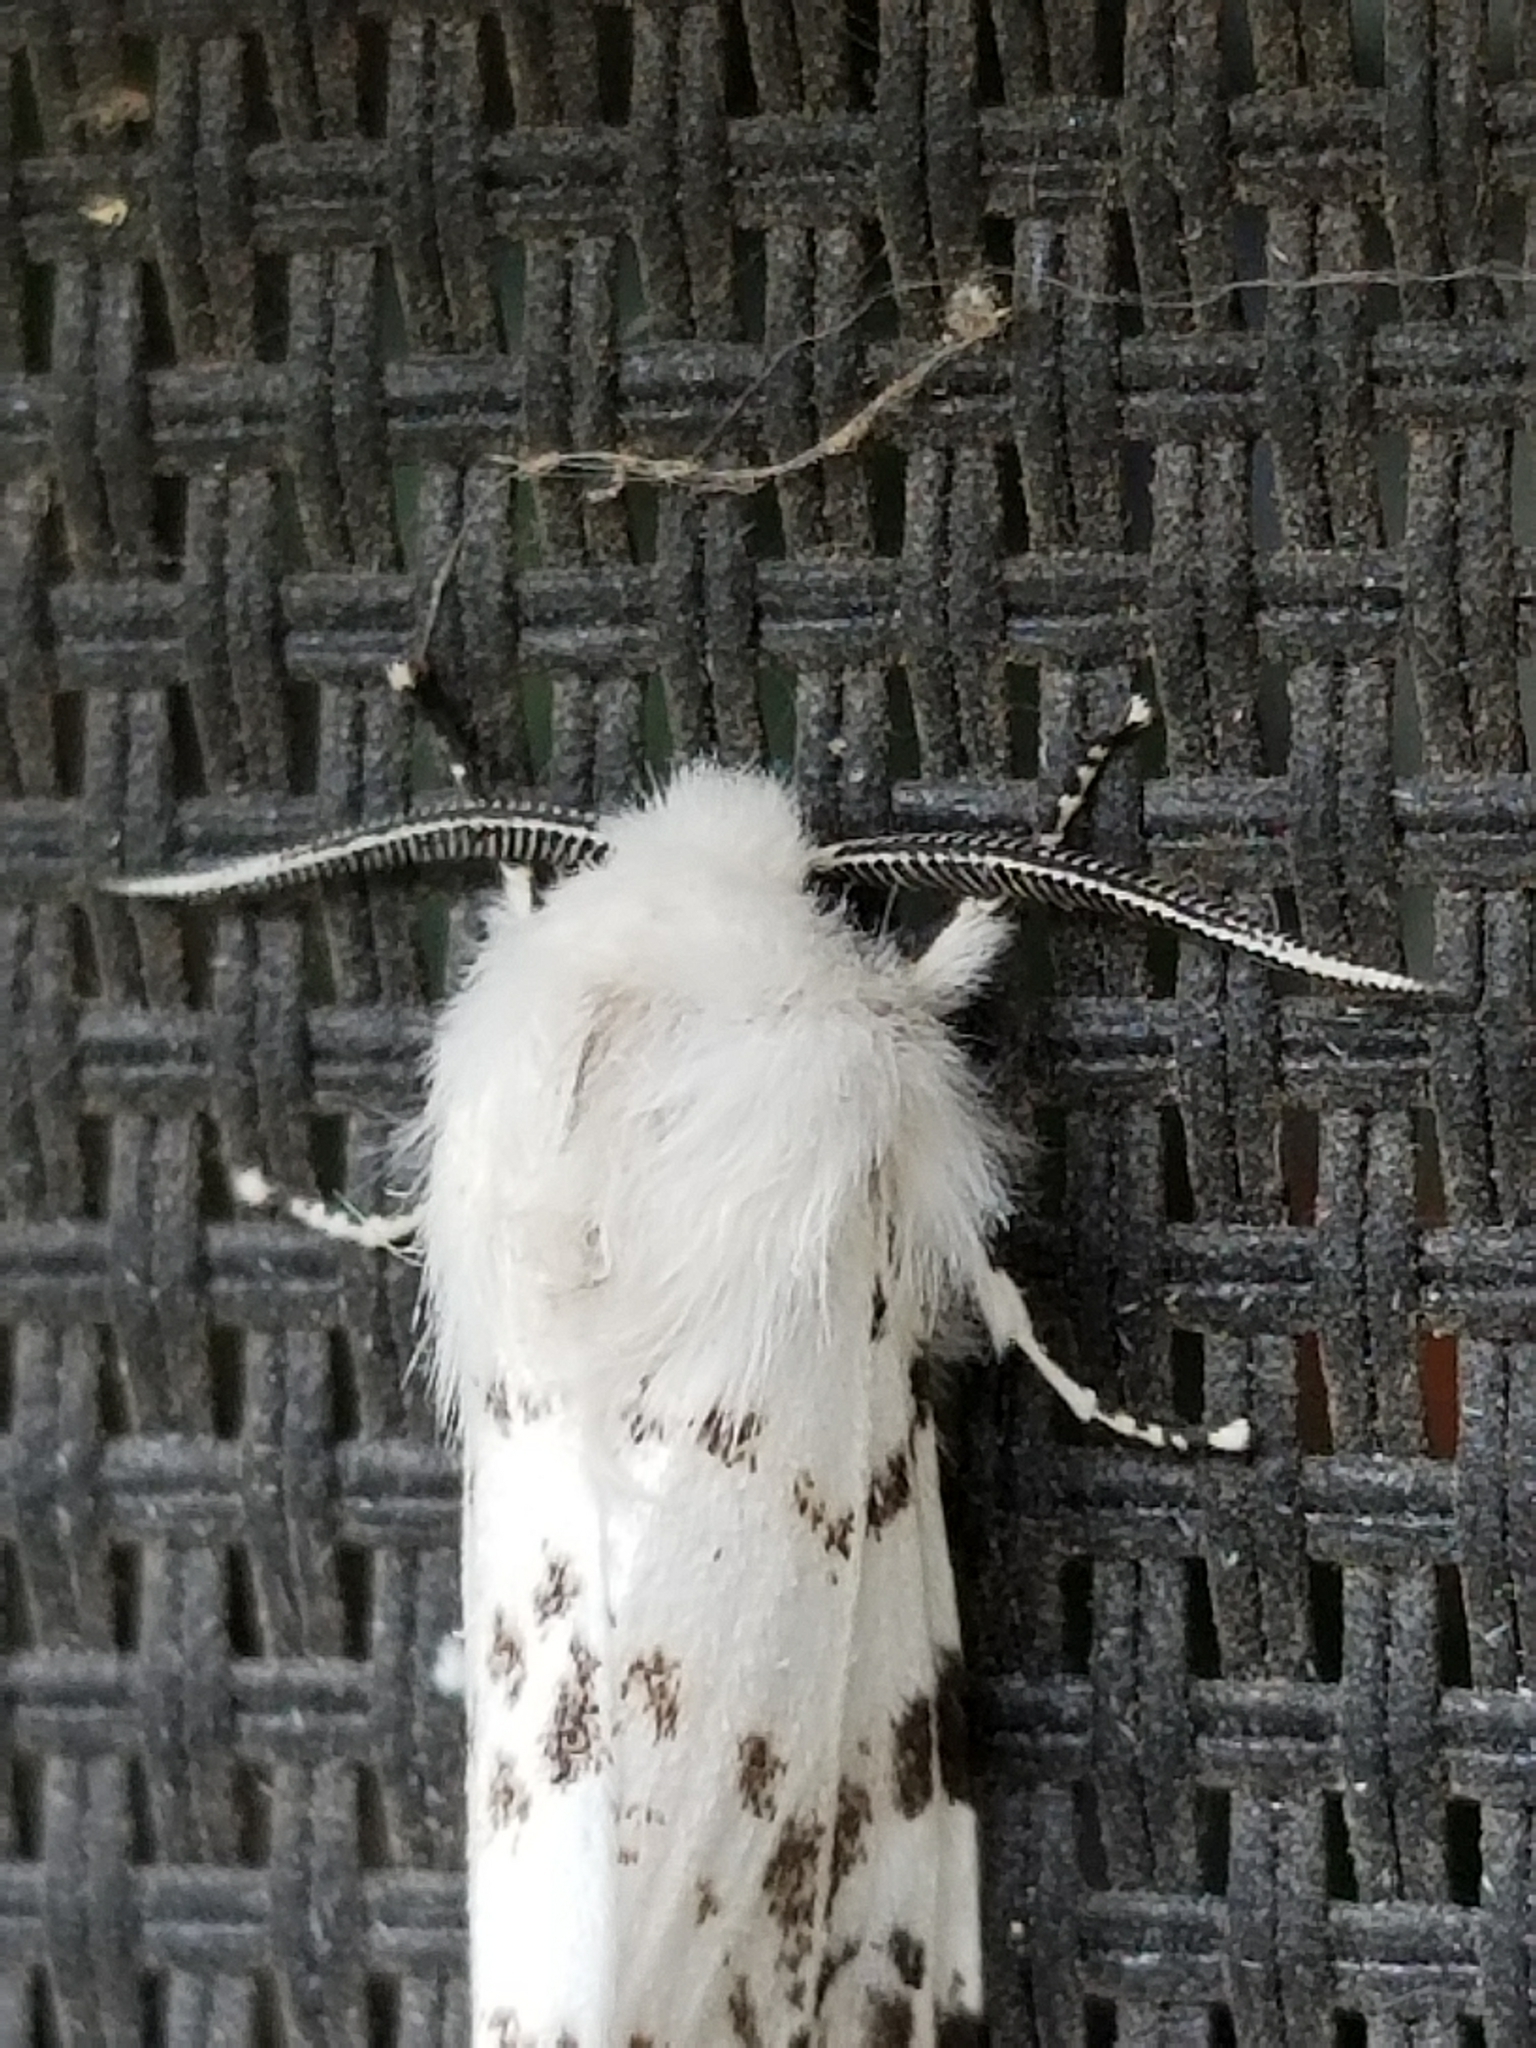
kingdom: Animalia
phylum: Arthropoda
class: Insecta
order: Lepidoptera
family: Erebidae
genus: Hyphantria
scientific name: Hyphantria cunea
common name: American white moth
